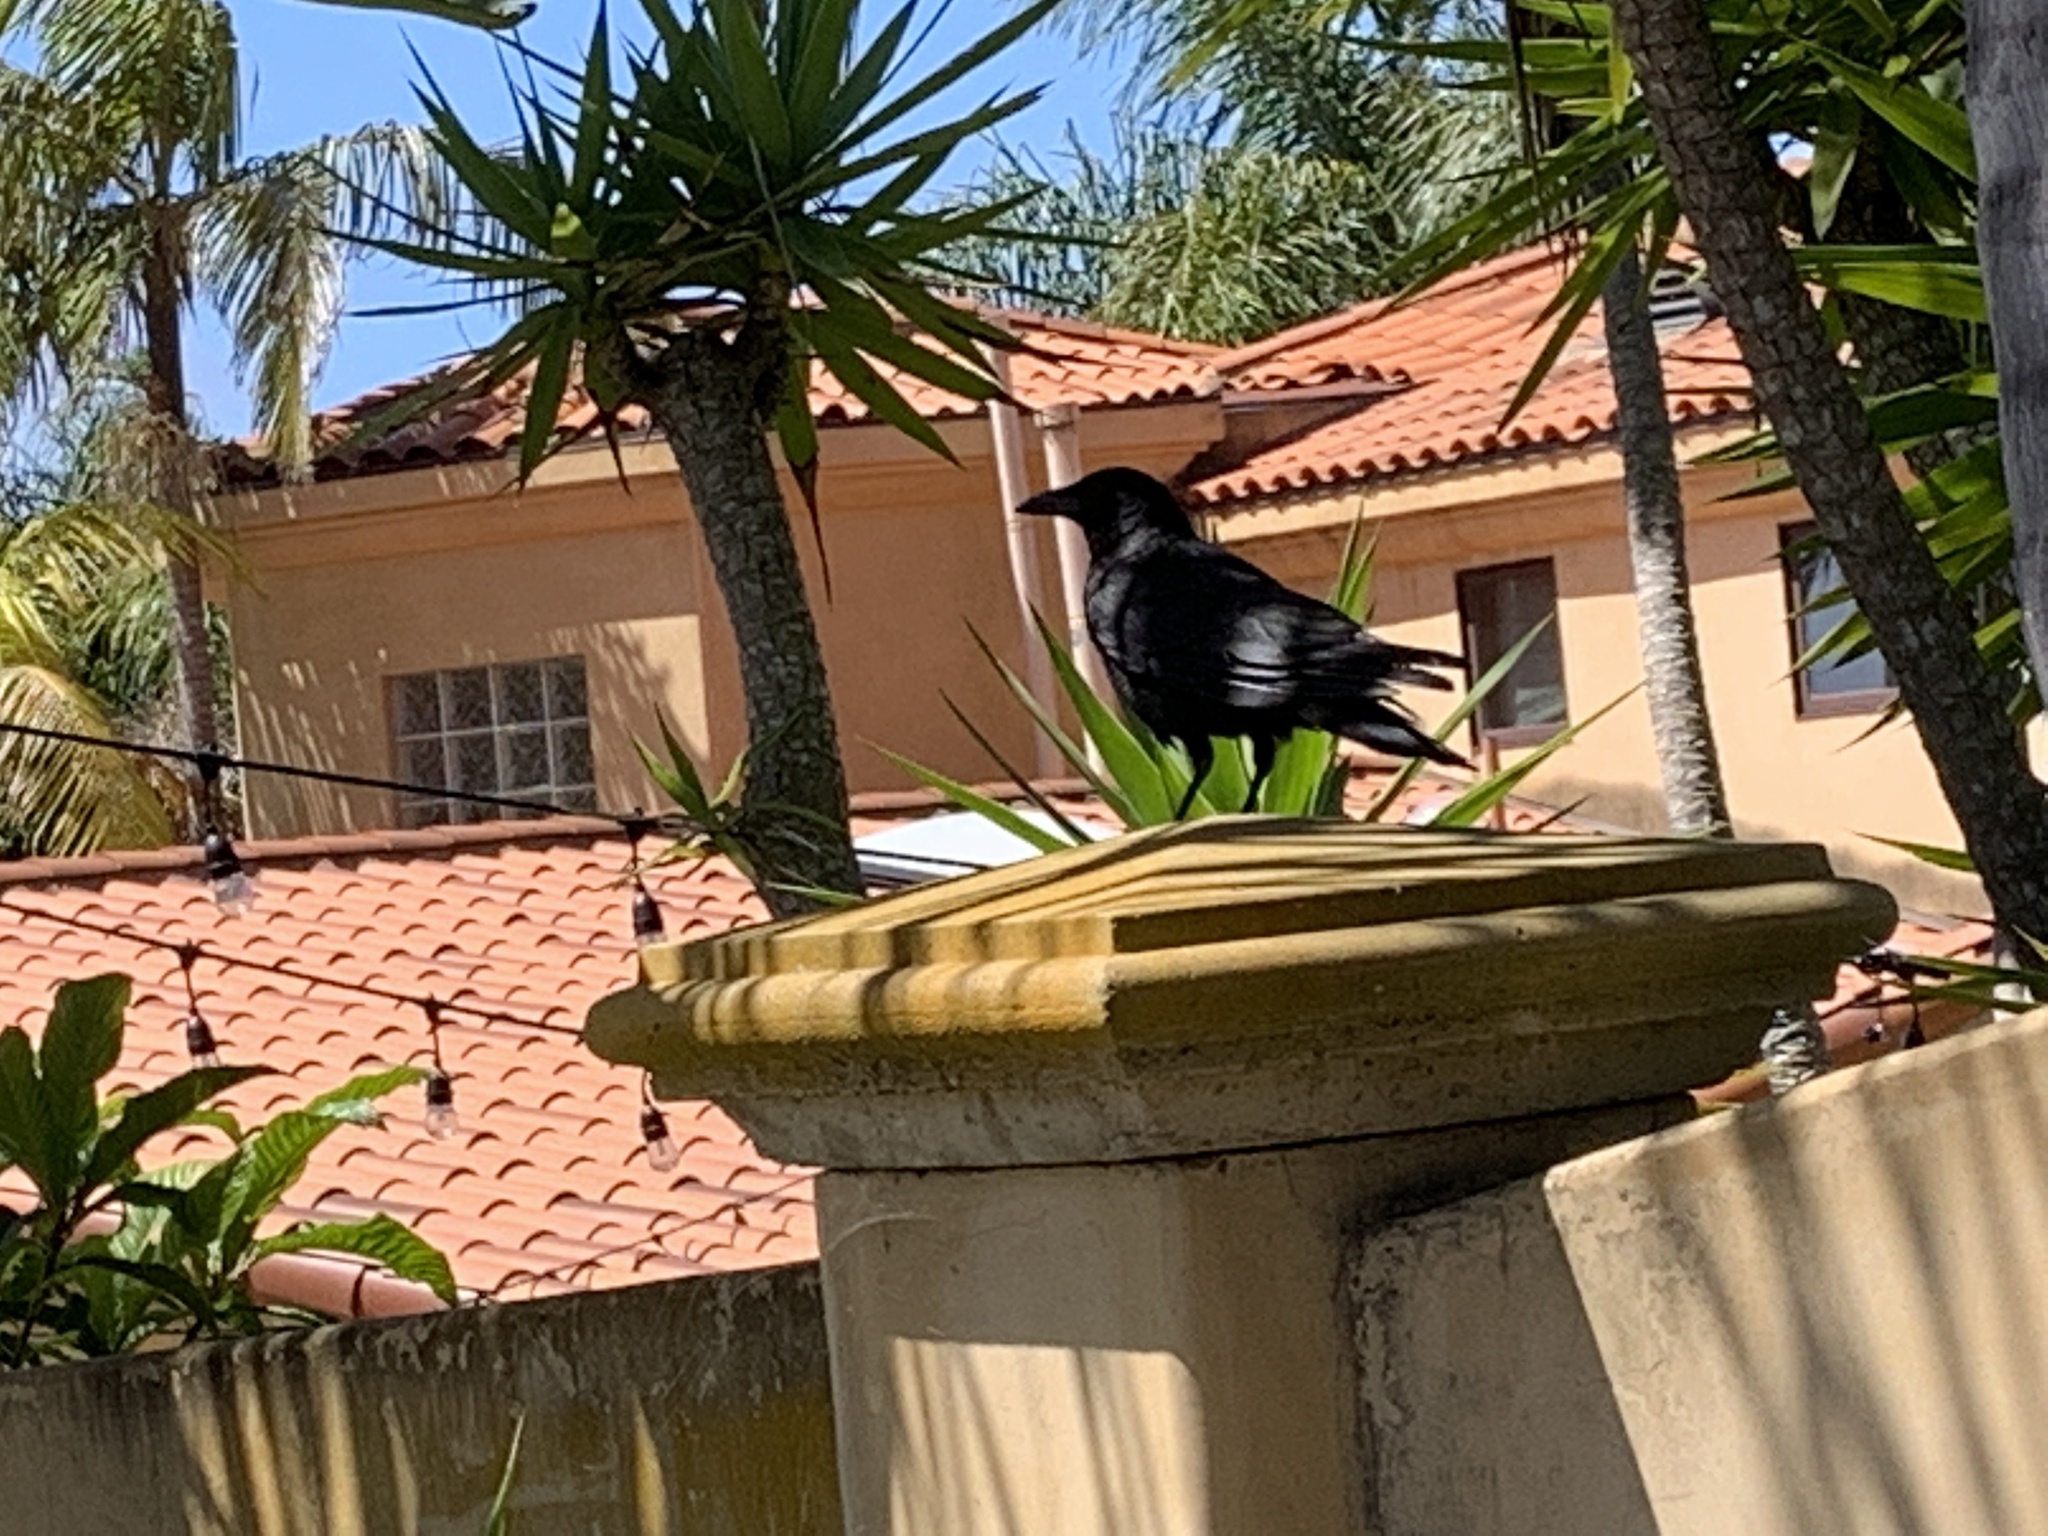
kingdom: Animalia
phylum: Chordata
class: Aves
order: Passeriformes
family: Corvidae
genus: Corvus
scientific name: Corvus brachyrhynchos
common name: American crow
